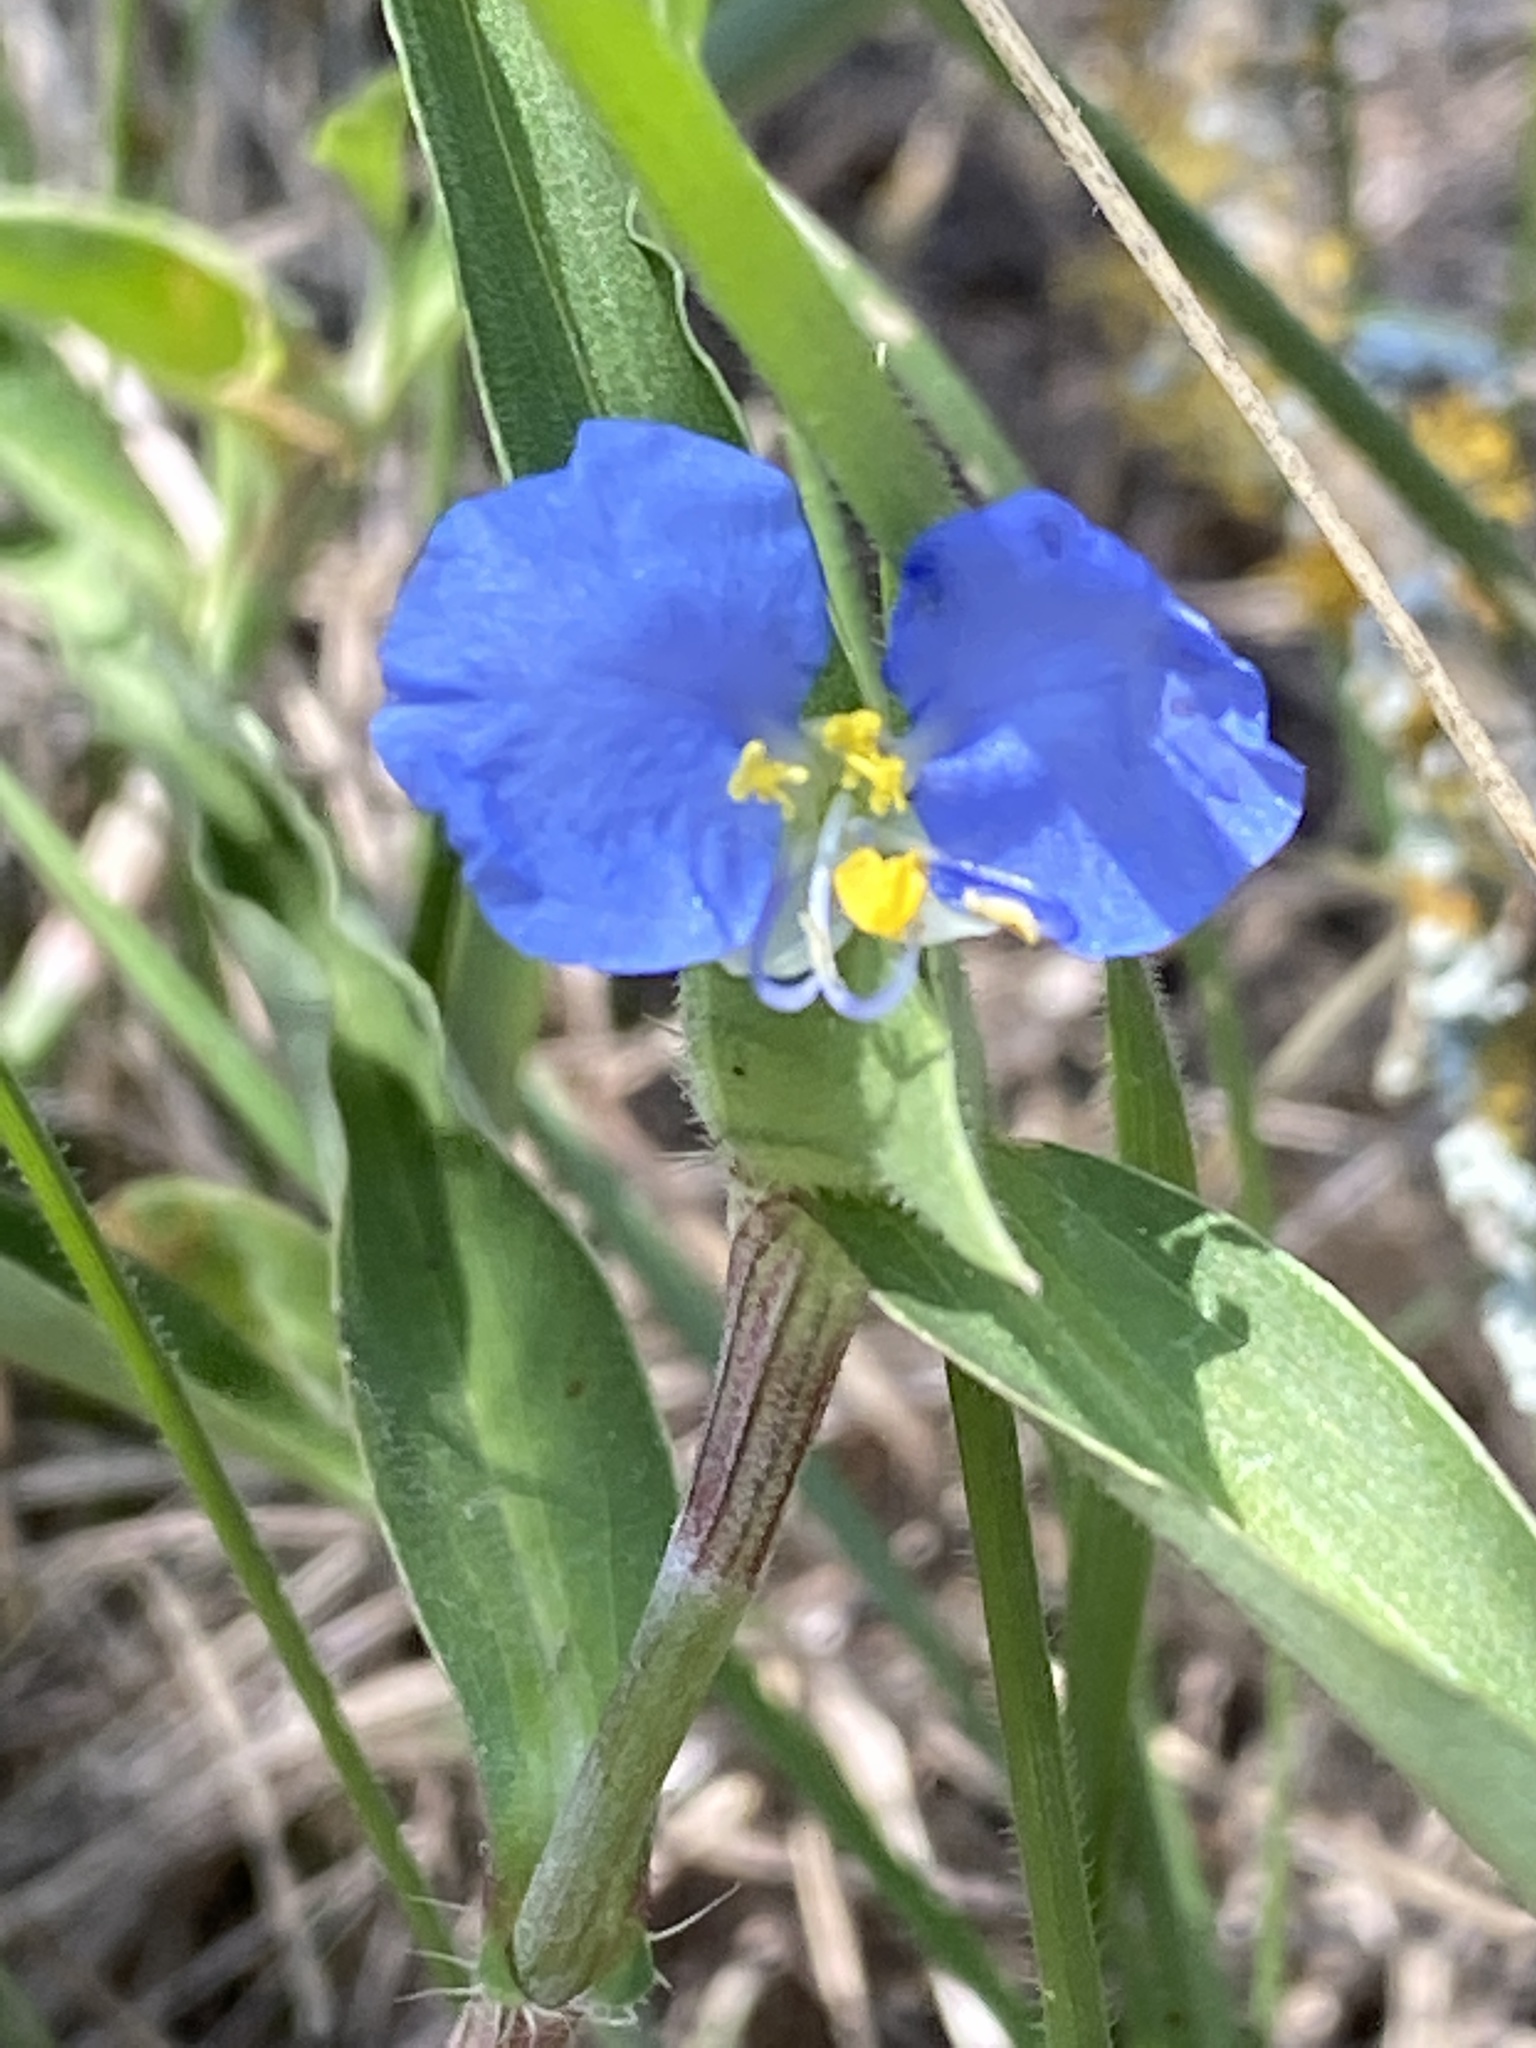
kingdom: Plantae
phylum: Tracheophyta
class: Liliopsida
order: Commelinales
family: Commelinaceae
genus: Commelina
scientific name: Commelina erecta
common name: Blousel blommetjie
